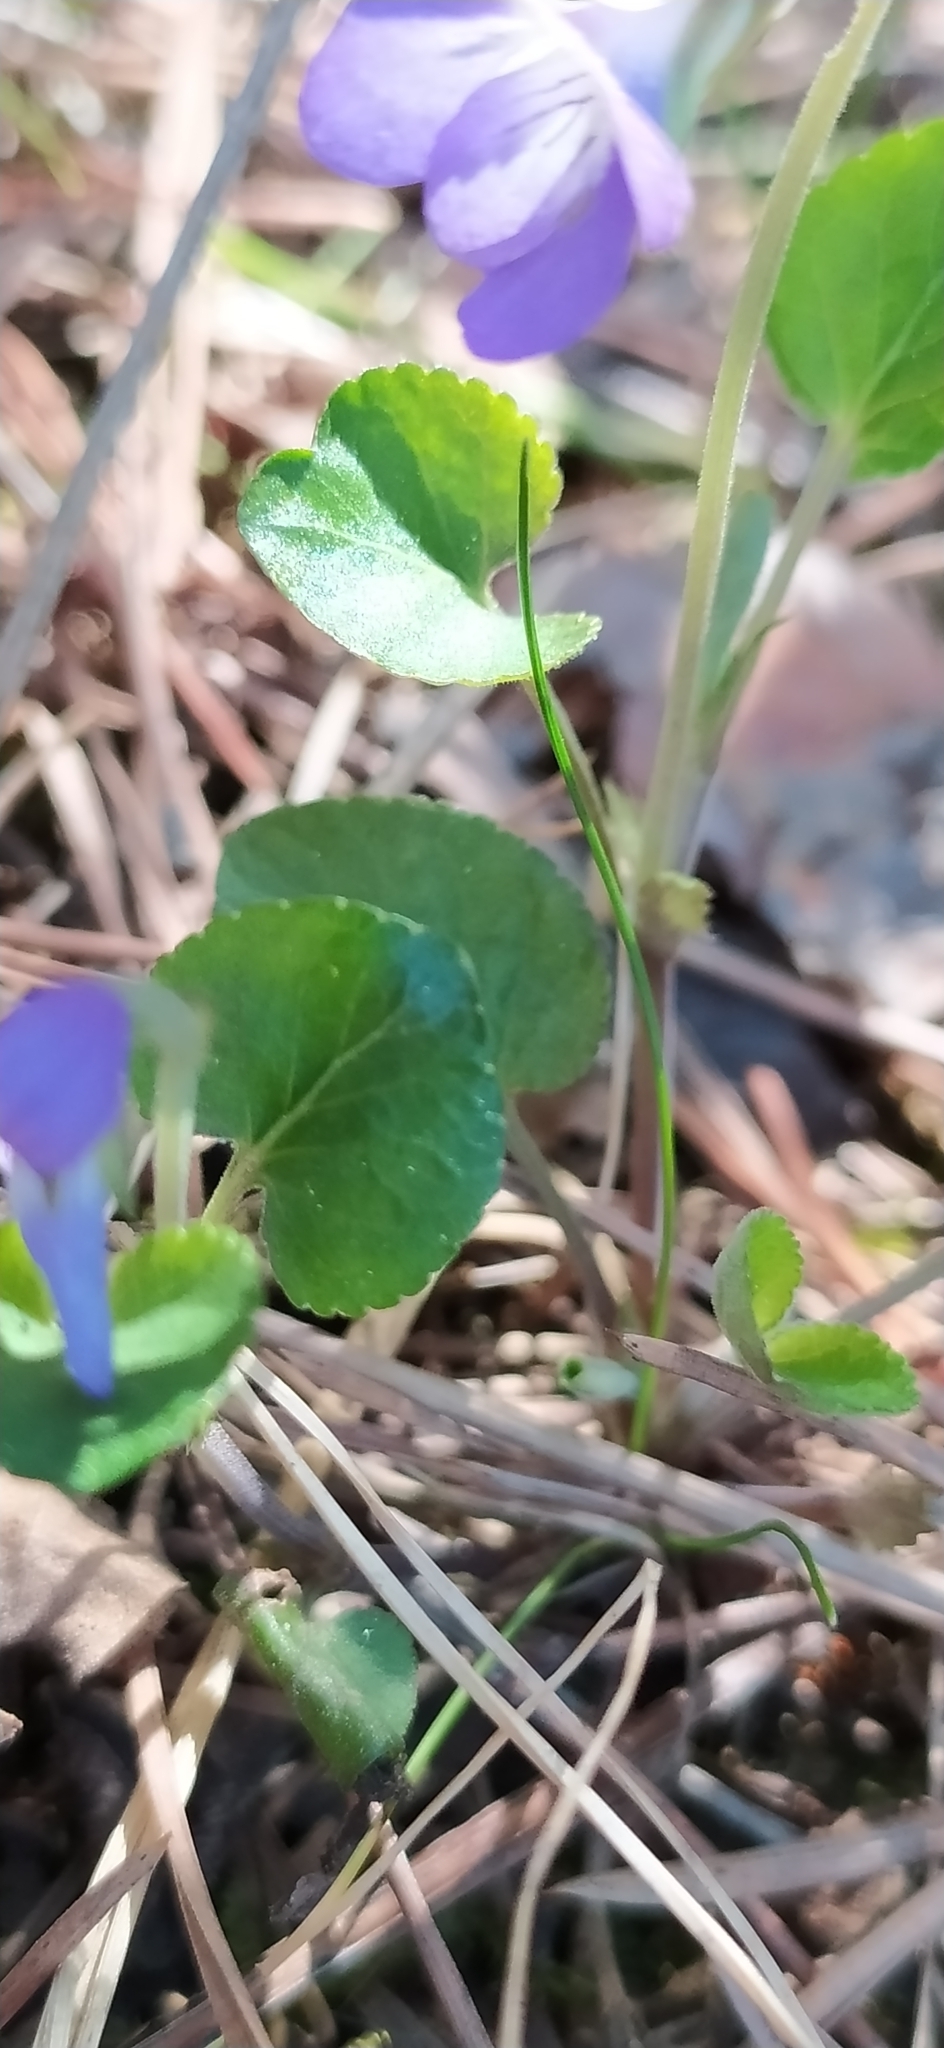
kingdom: Plantae
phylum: Tracheophyta
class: Magnoliopsida
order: Malpighiales
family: Violaceae
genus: Viola
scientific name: Viola rupestris
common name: Teesdale violet
